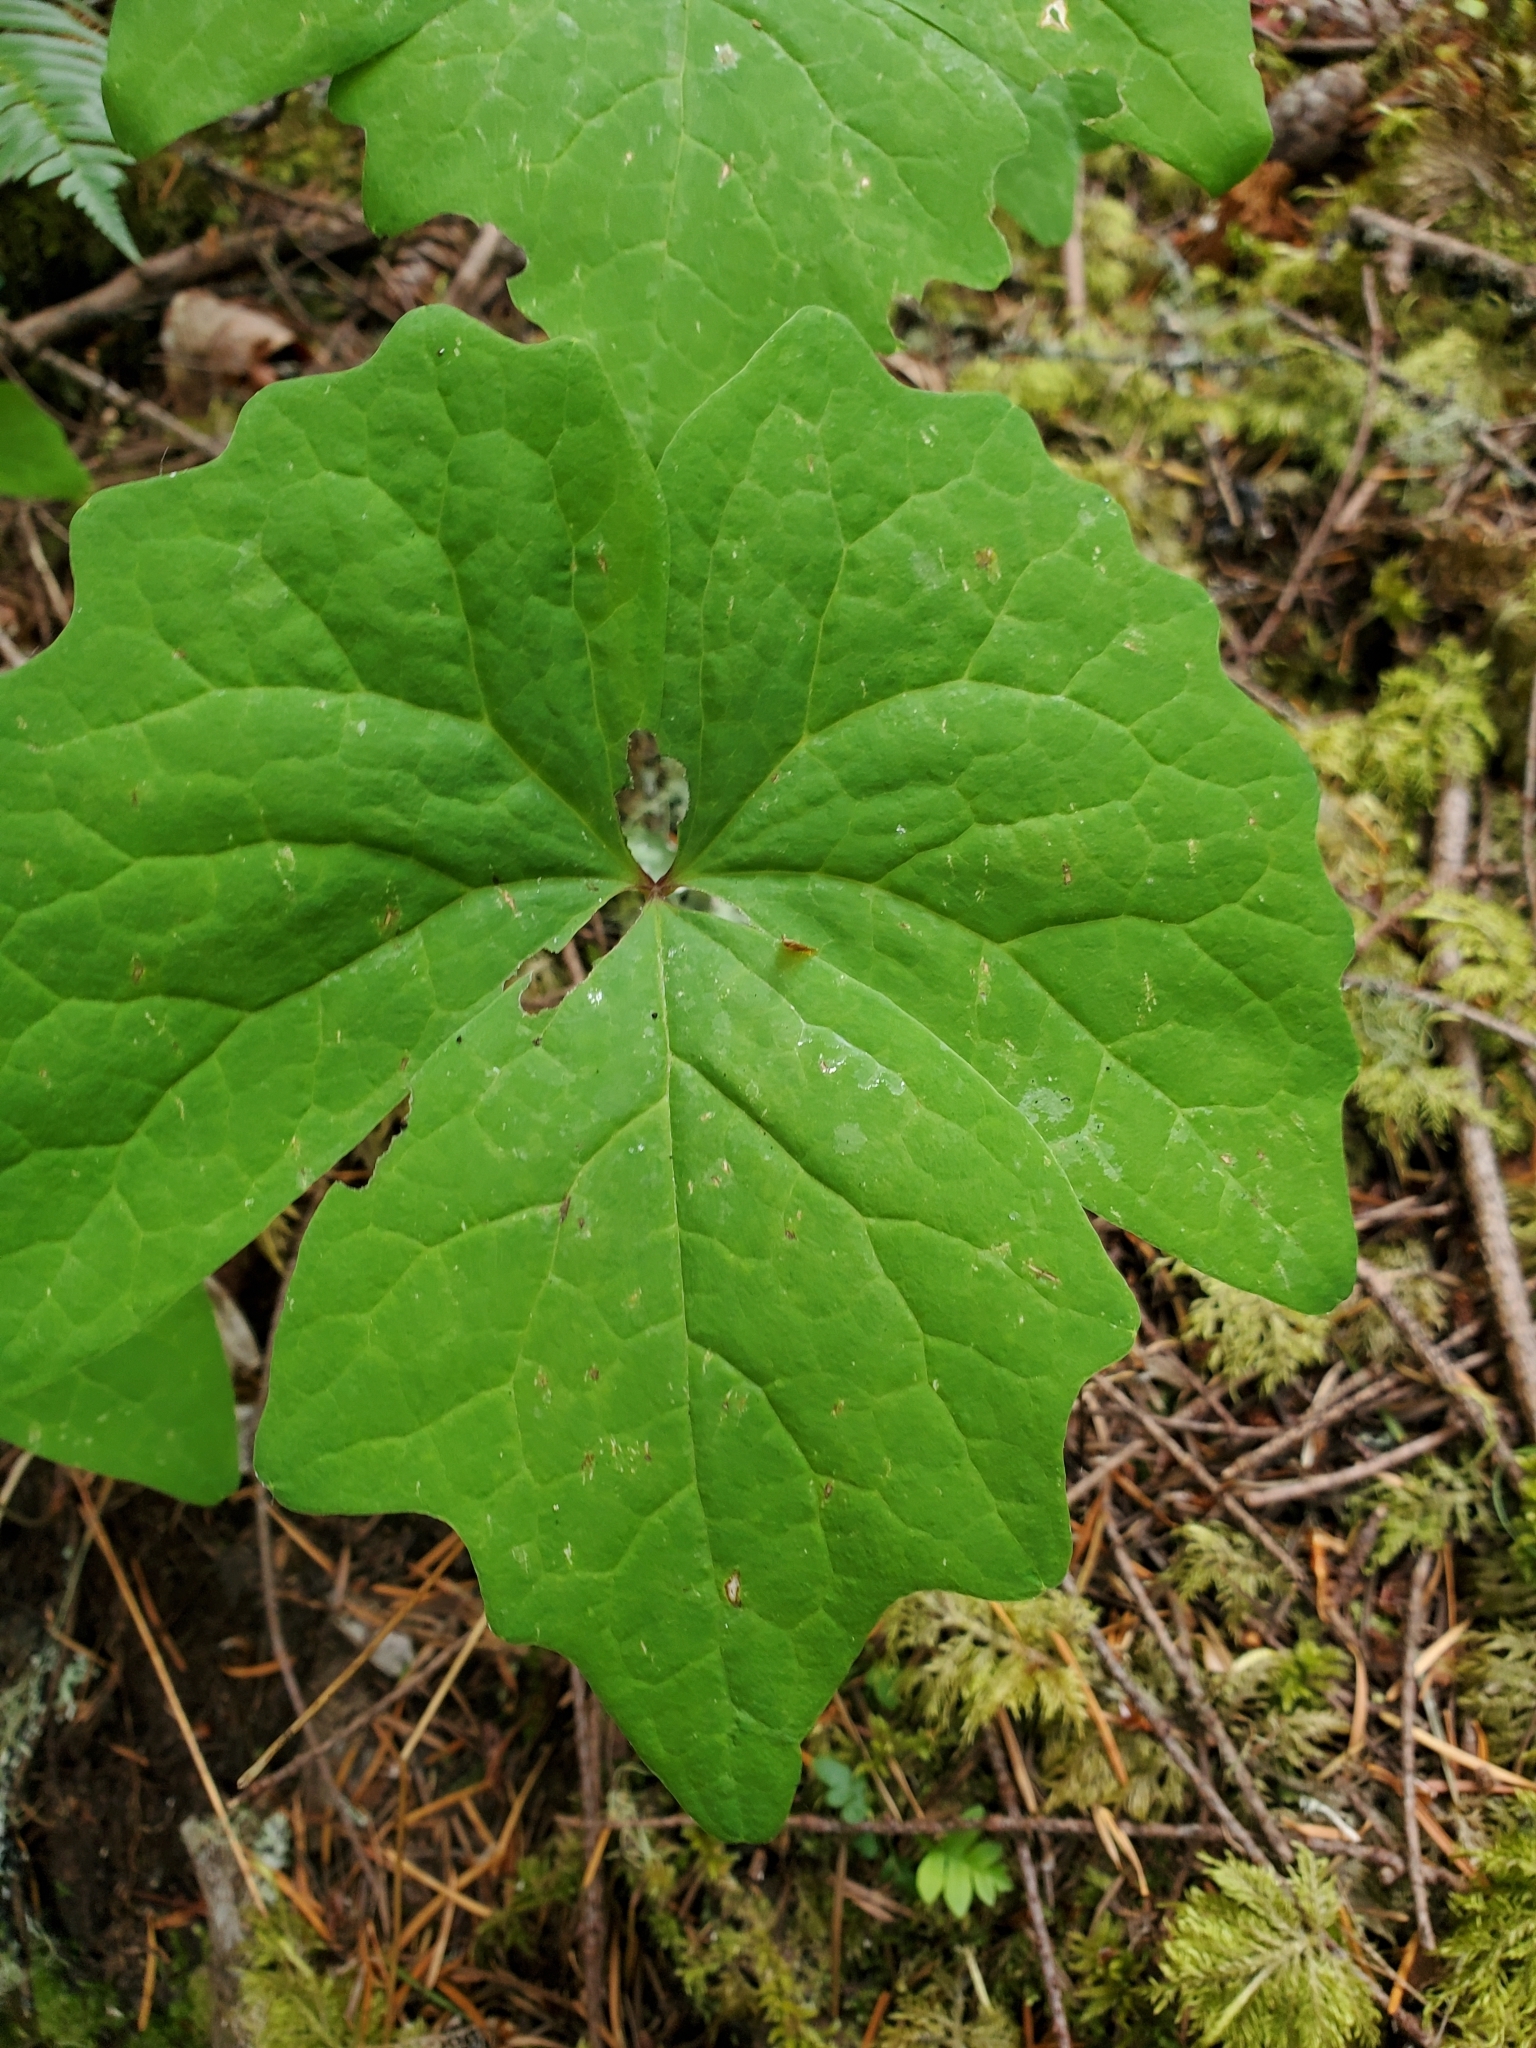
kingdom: Plantae
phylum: Tracheophyta
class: Magnoliopsida
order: Ranunculales
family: Berberidaceae
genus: Achlys
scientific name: Achlys triphylla
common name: Vanilla-leaf
